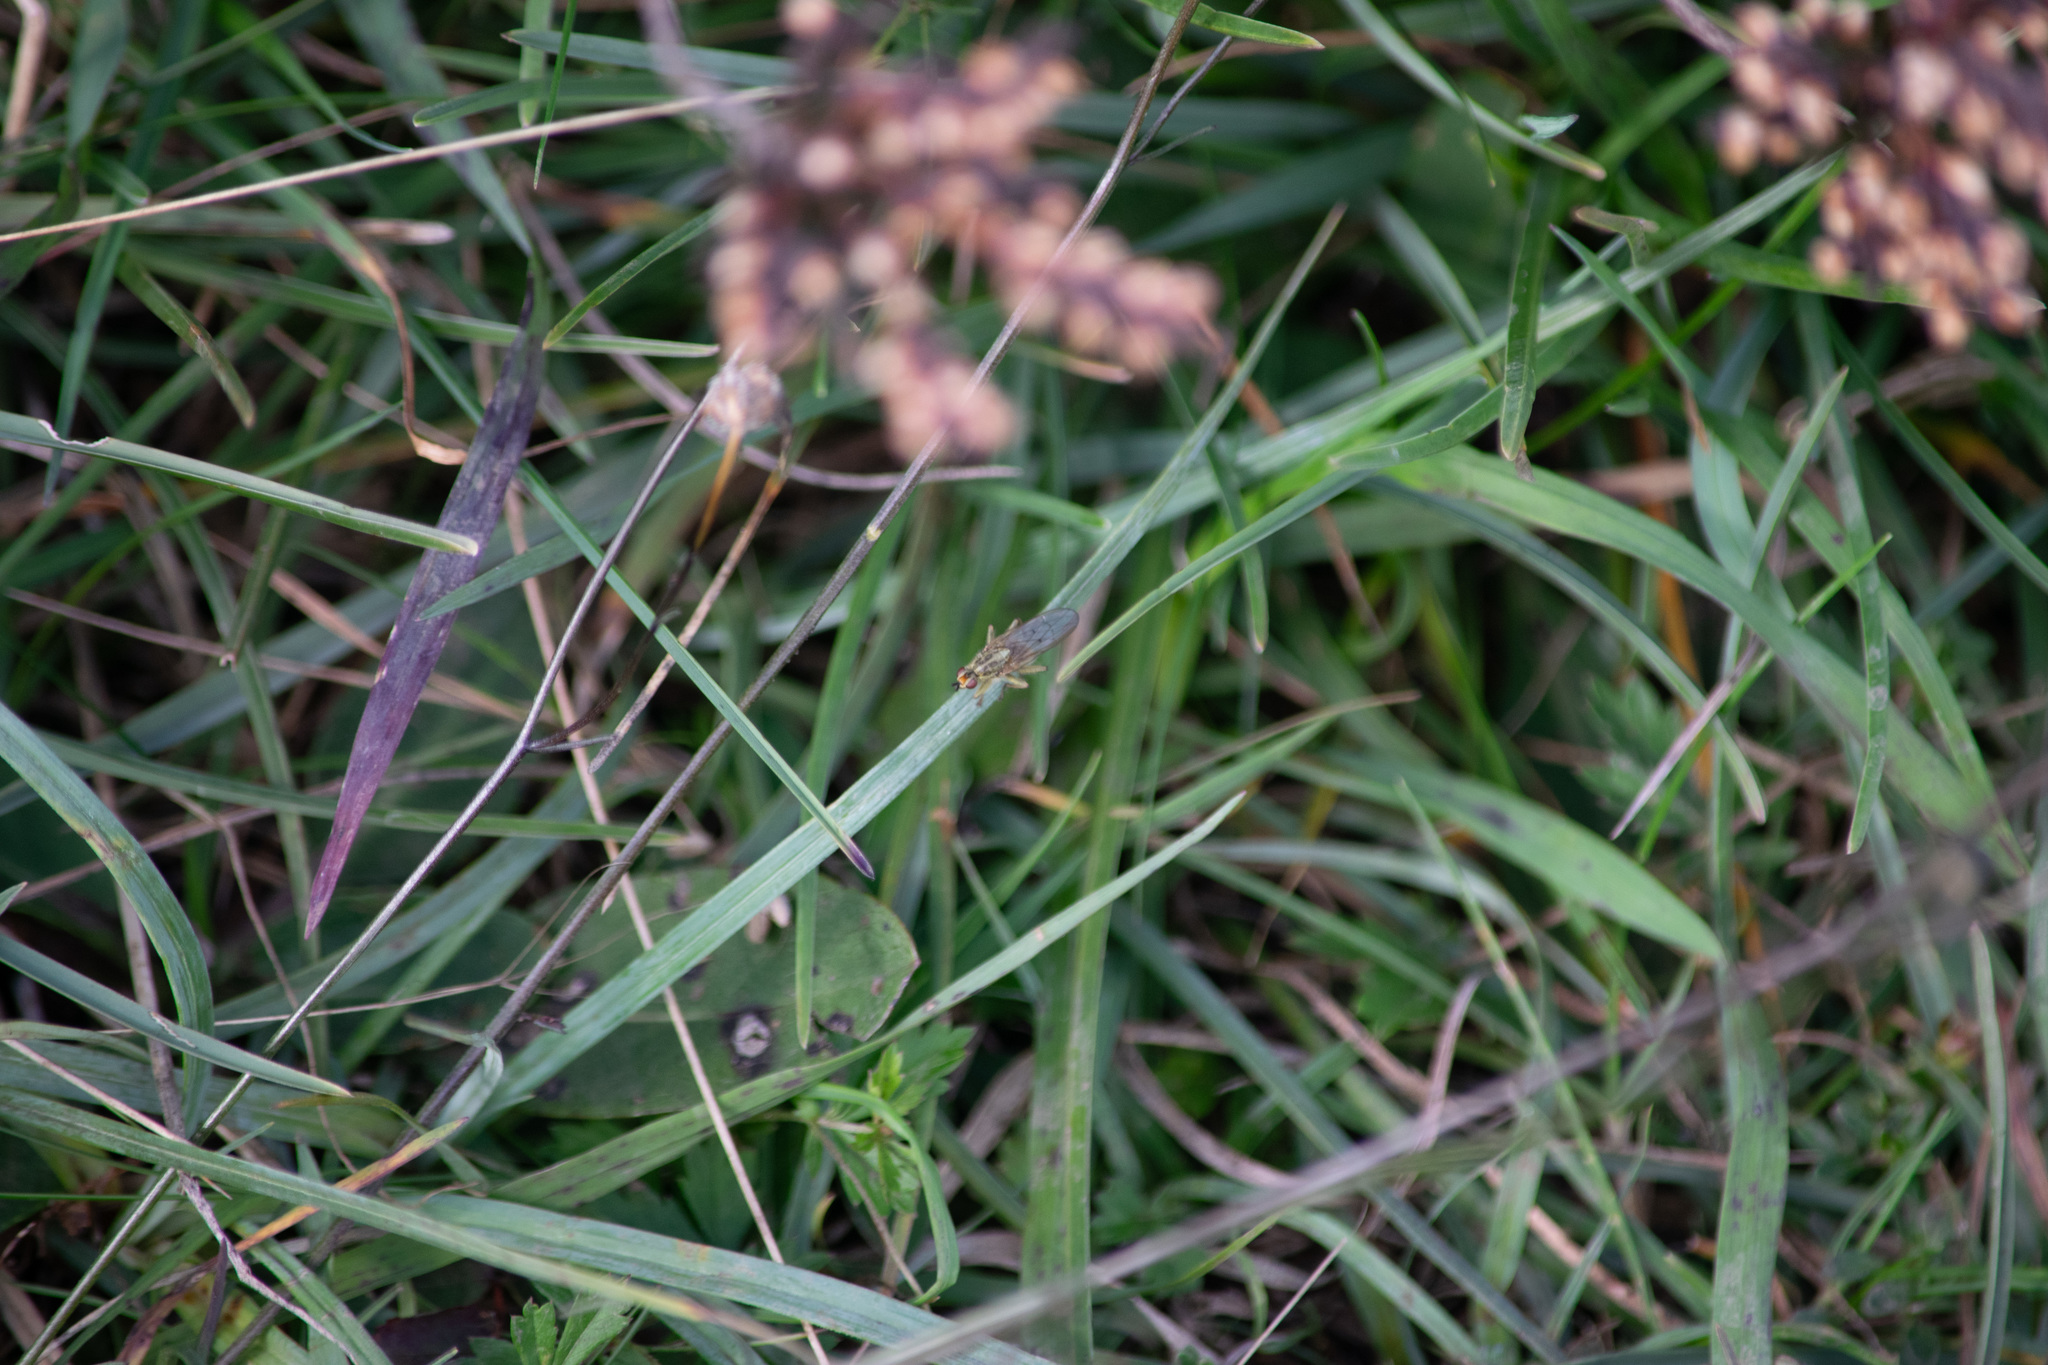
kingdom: Animalia
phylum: Arthropoda
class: Insecta
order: Diptera
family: Scathophagidae
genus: Scathophaga
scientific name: Scathophaga stercoraria
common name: Yellow dung fly
